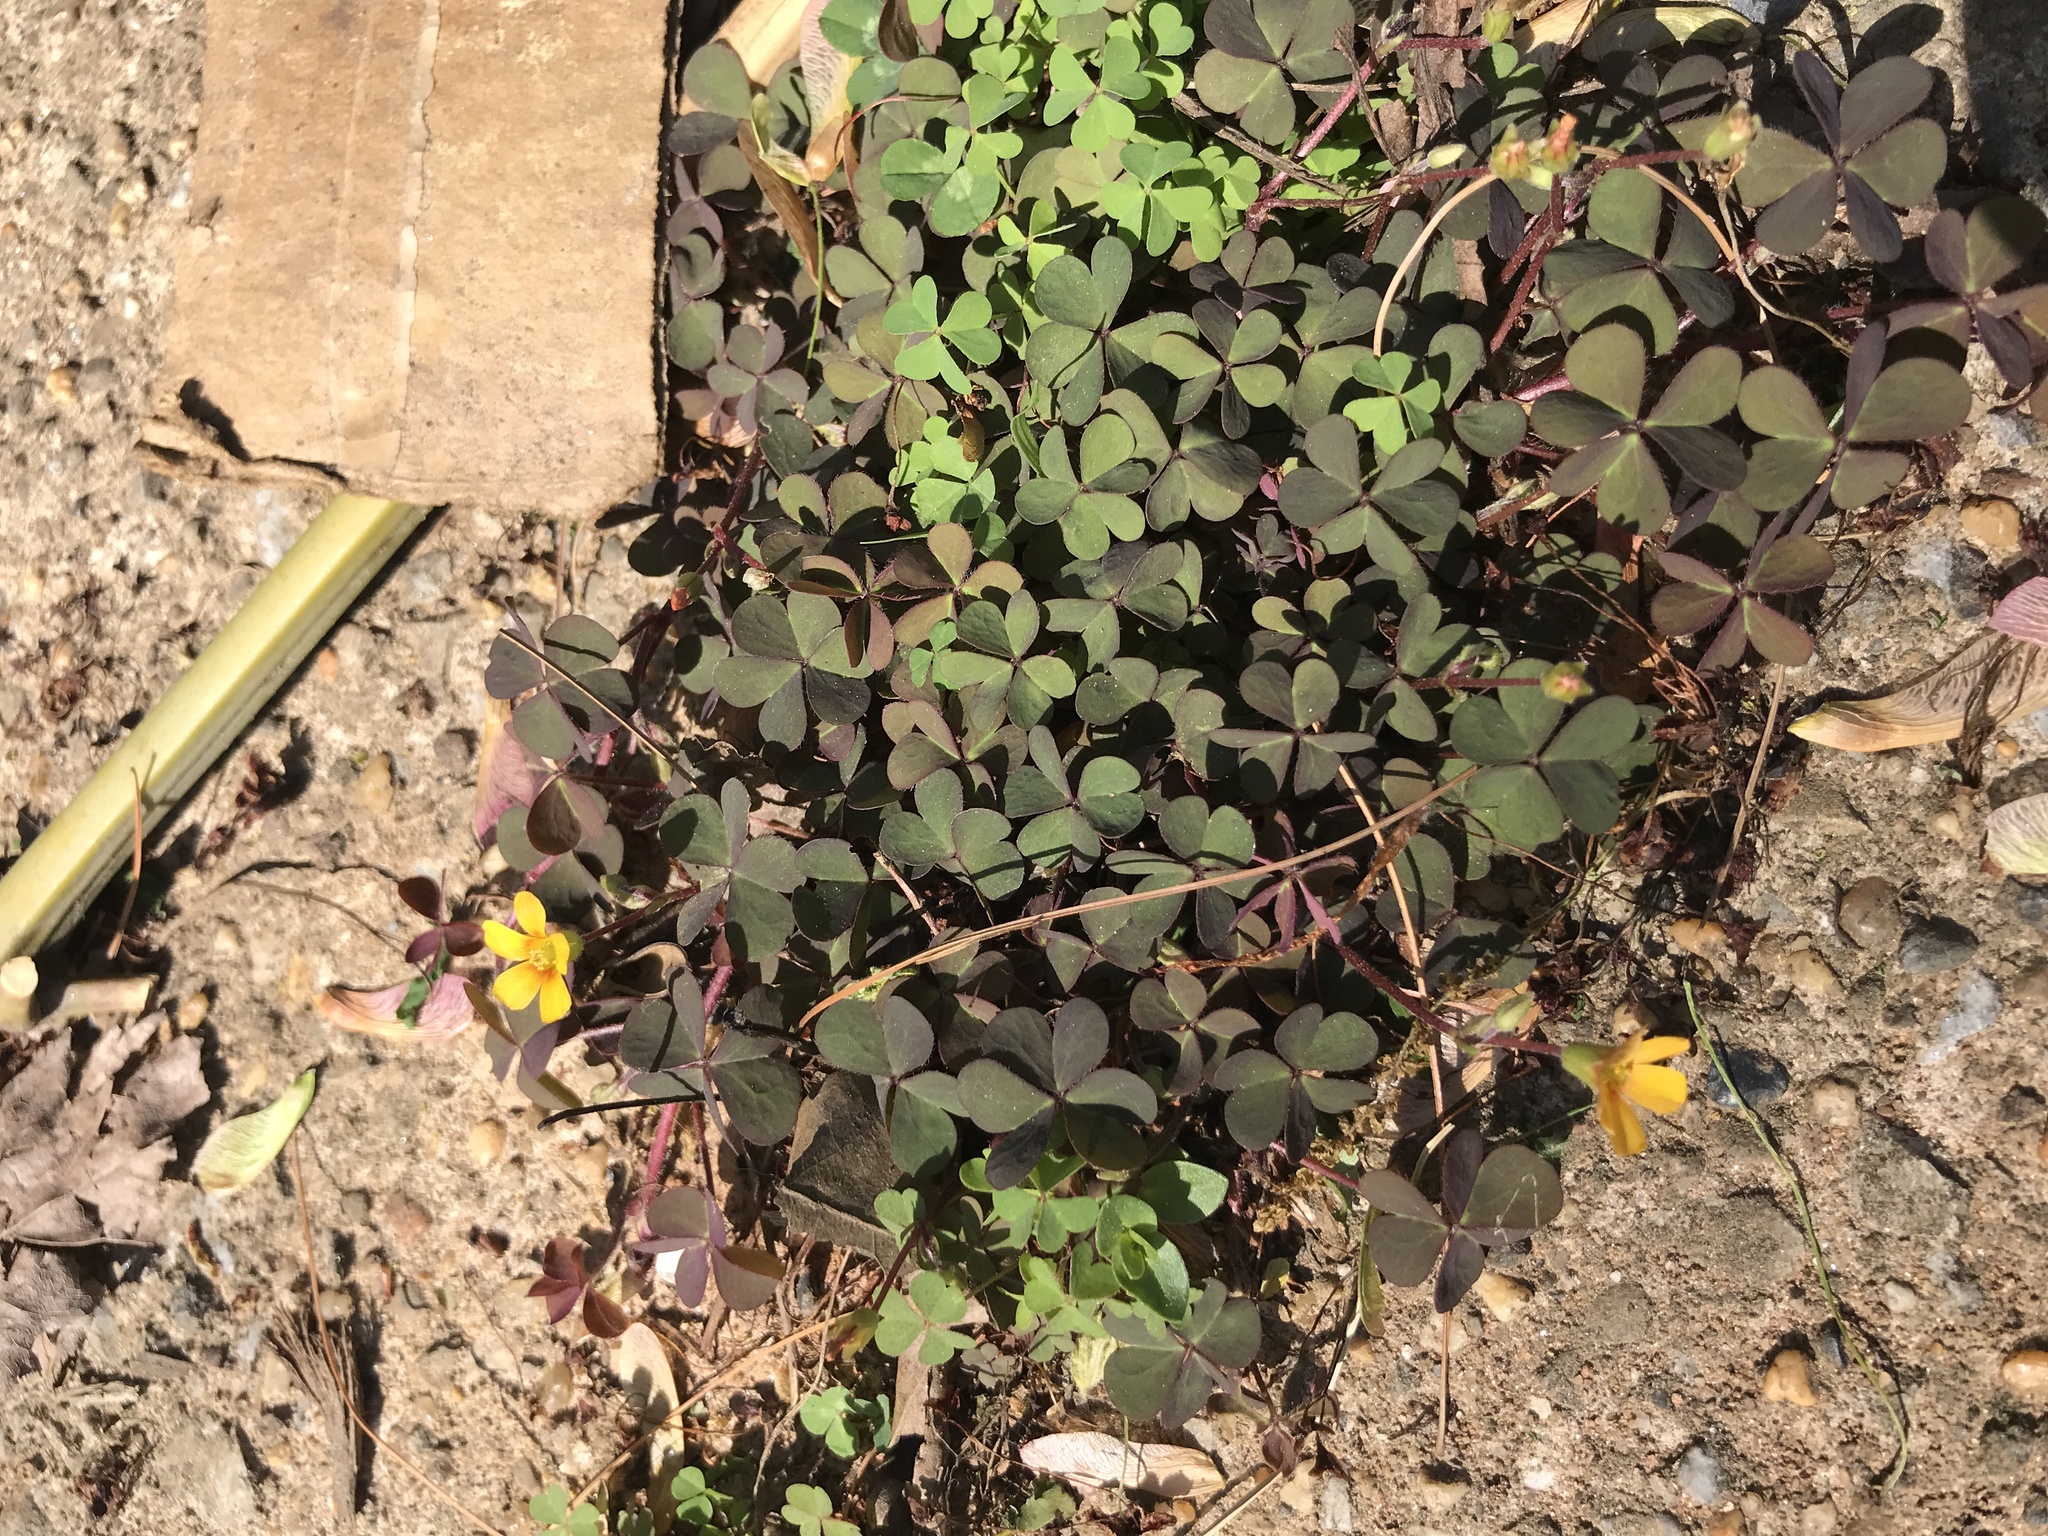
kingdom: Plantae
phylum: Tracheophyta
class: Magnoliopsida
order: Oxalidales
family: Oxalidaceae
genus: Oxalis
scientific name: Oxalis corniculata
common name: Procumbent yellow-sorrel
